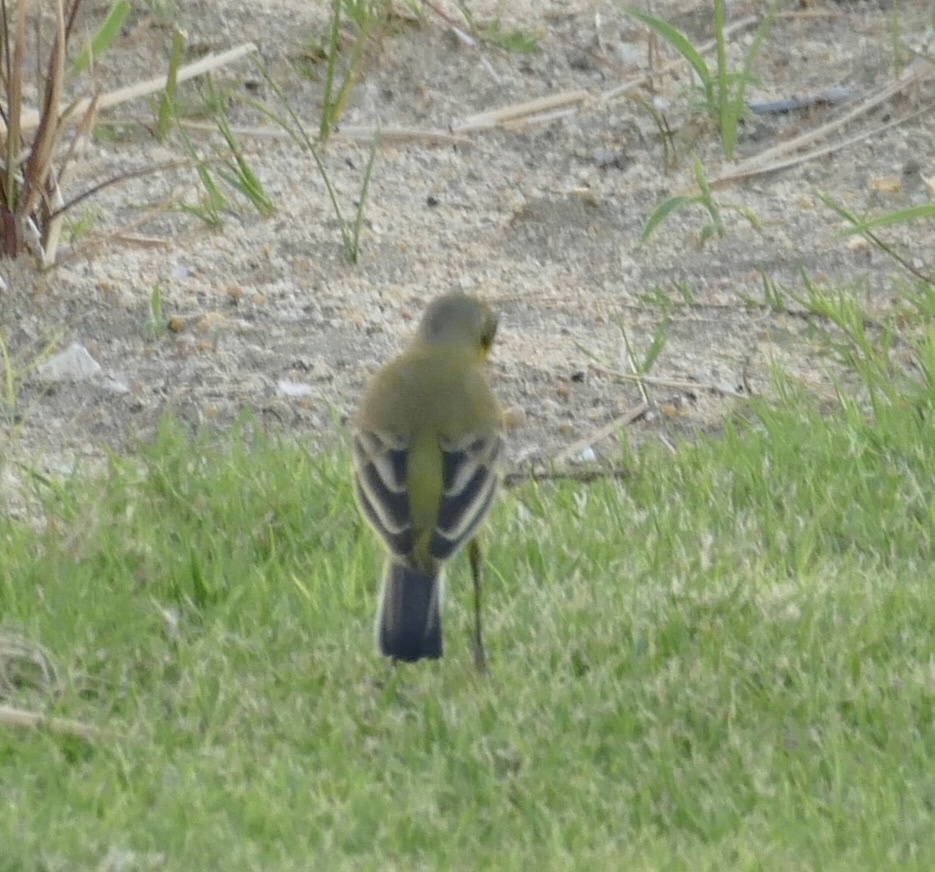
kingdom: Animalia
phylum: Chordata
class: Aves
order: Passeriformes
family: Motacillidae
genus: Motacilla
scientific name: Motacilla flava
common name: Western yellow wagtail
